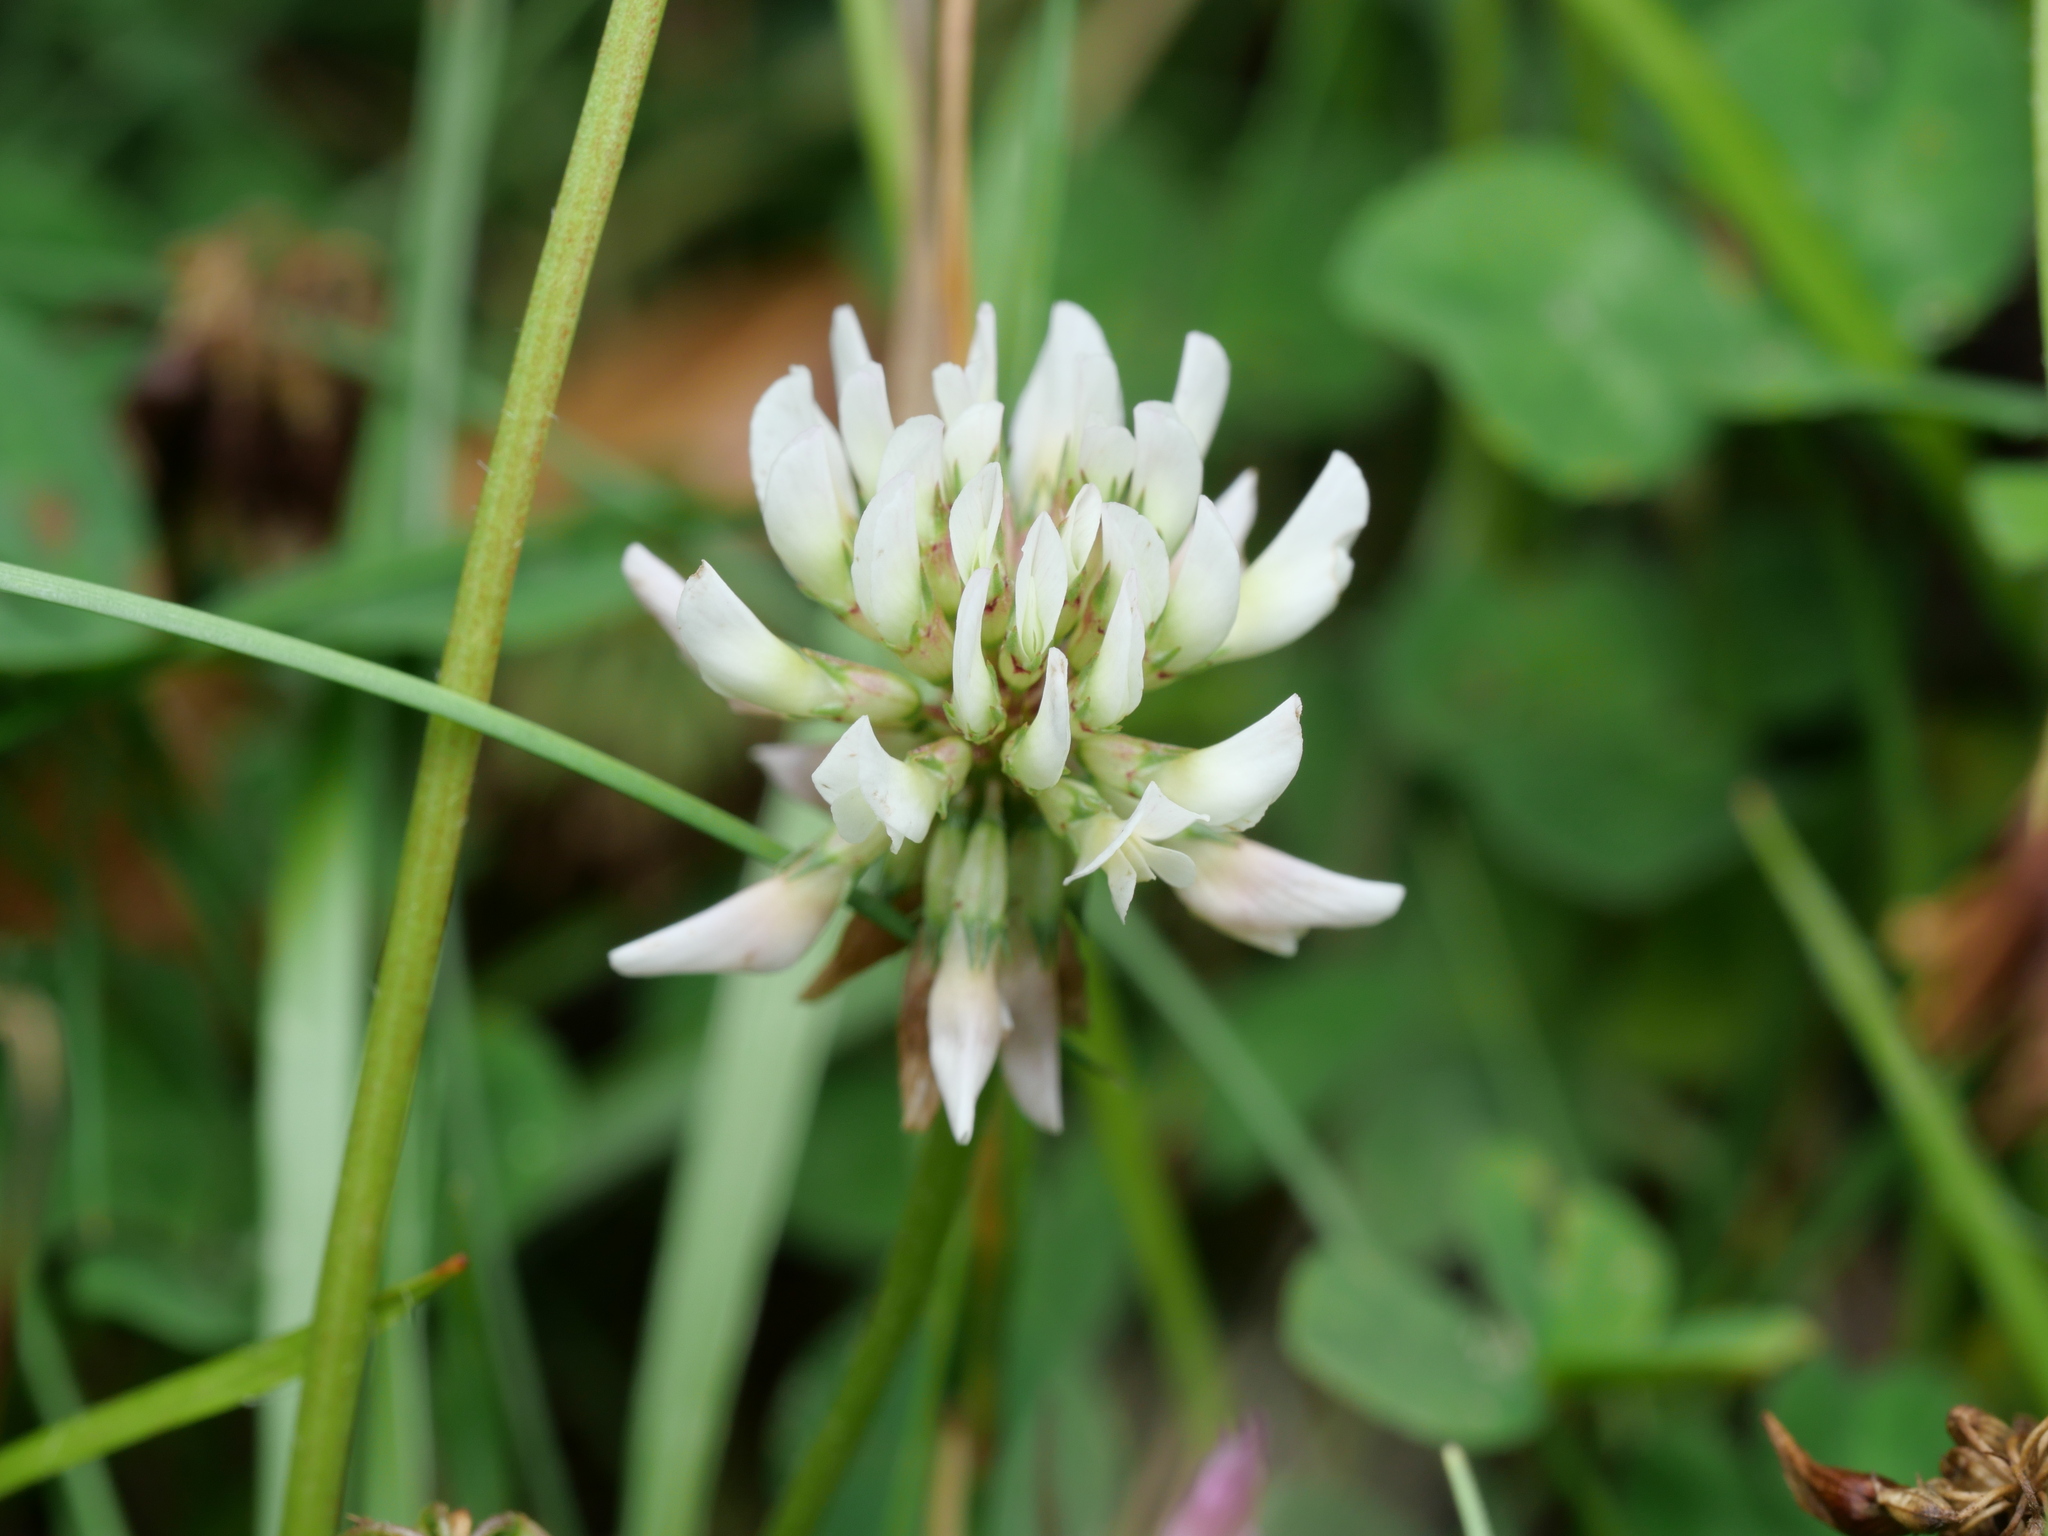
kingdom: Plantae
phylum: Tracheophyta
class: Magnoliopsida
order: Fabales
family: Fabaceae
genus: Trifolium
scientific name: Trifolium repens
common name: White clover
